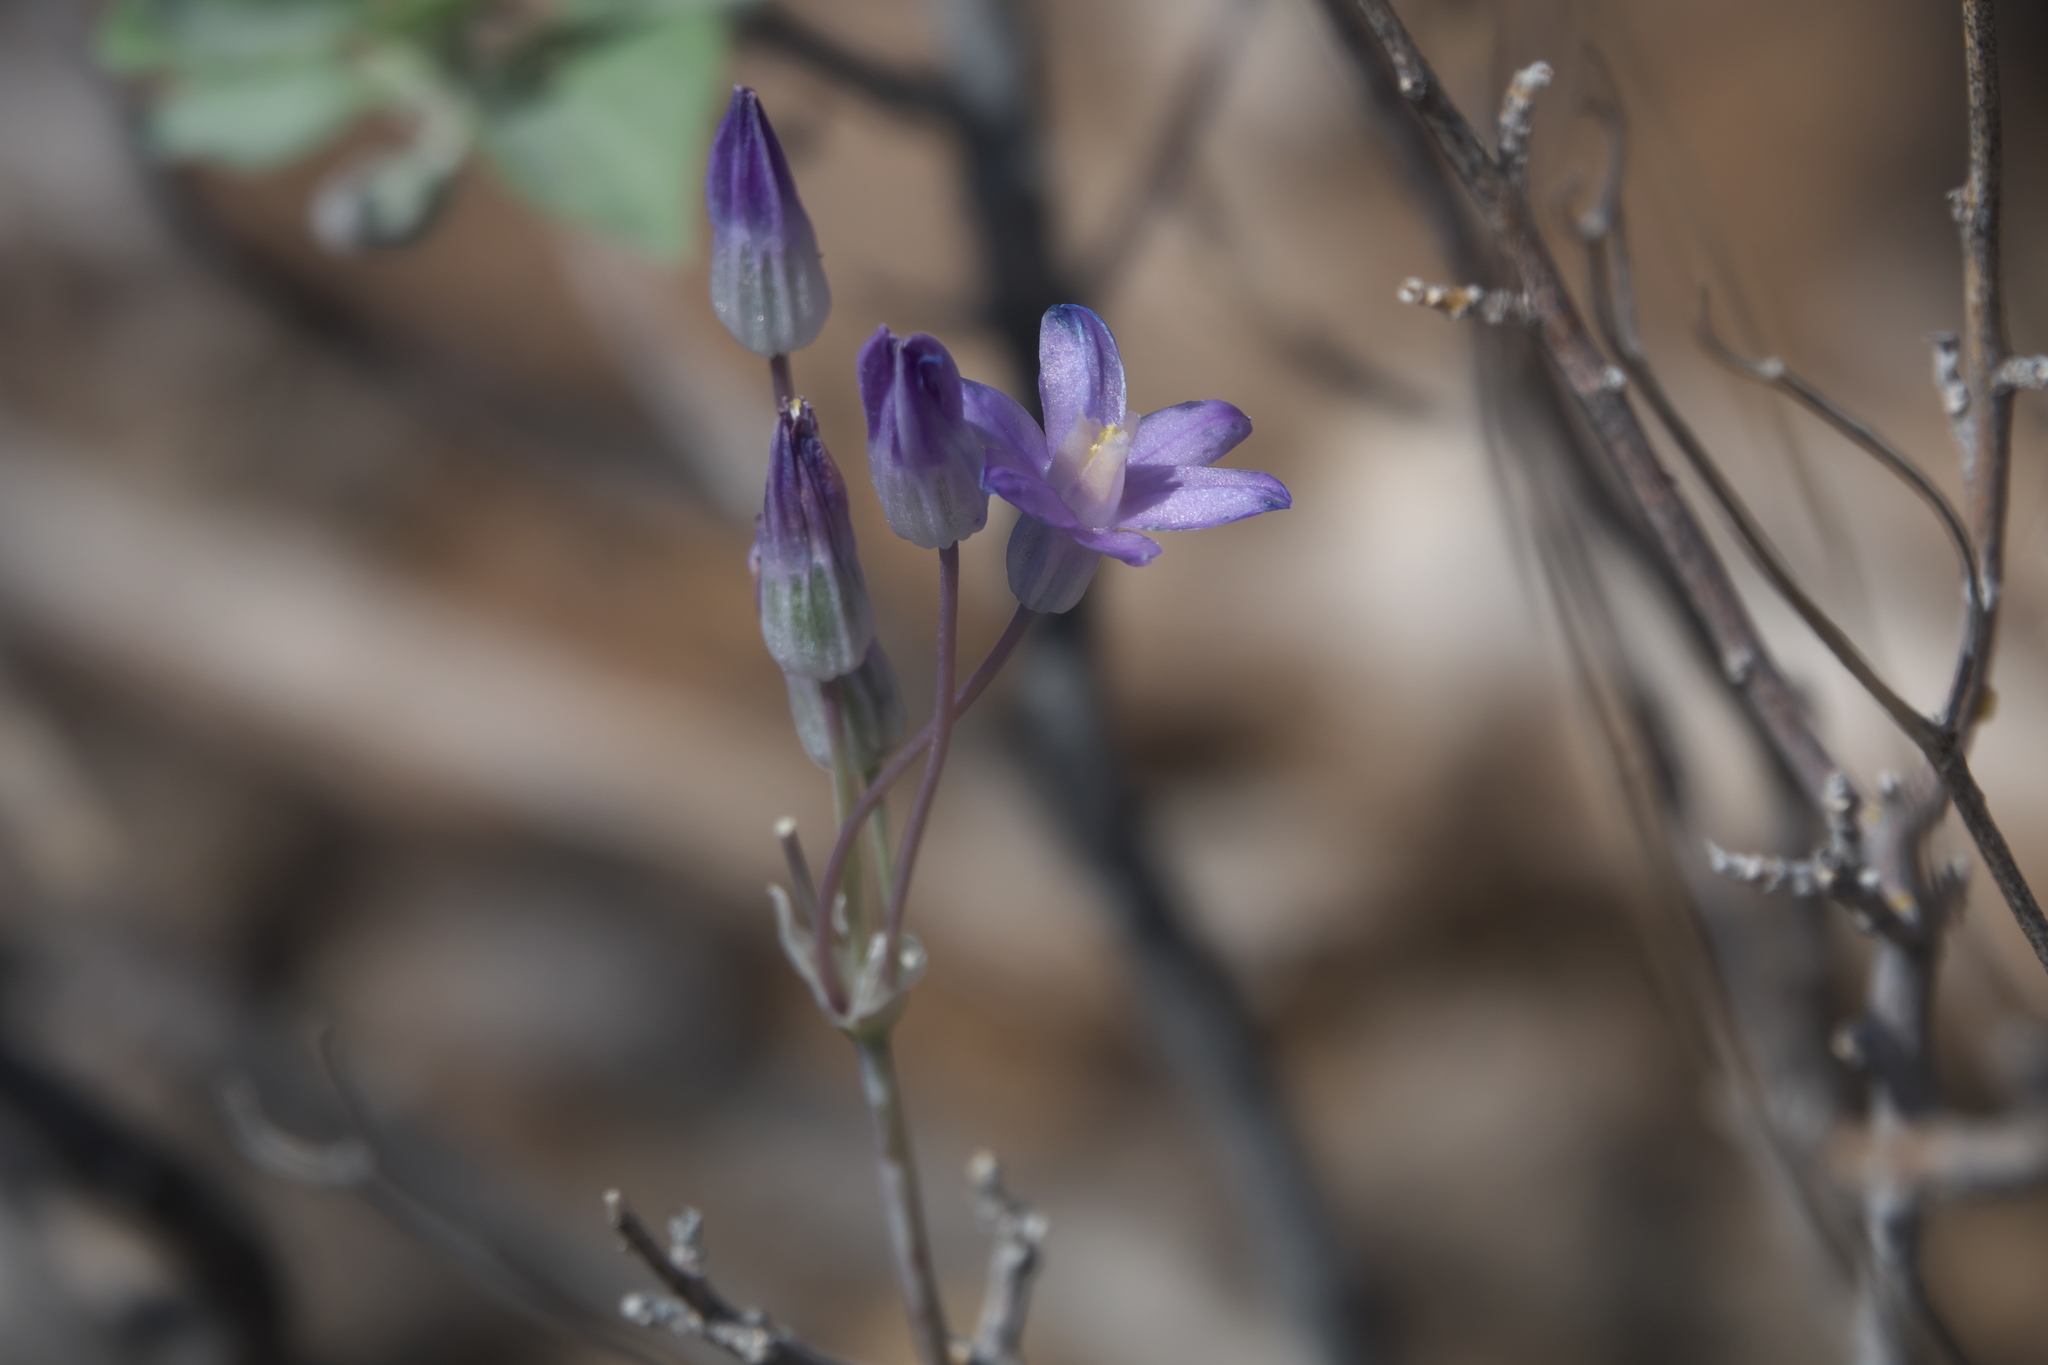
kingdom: Plantae
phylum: Tracheophyta
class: Liliopsida
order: Asparagales
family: Asparagaceae
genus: Dipterostemon
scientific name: Dipterostemon capitatus
